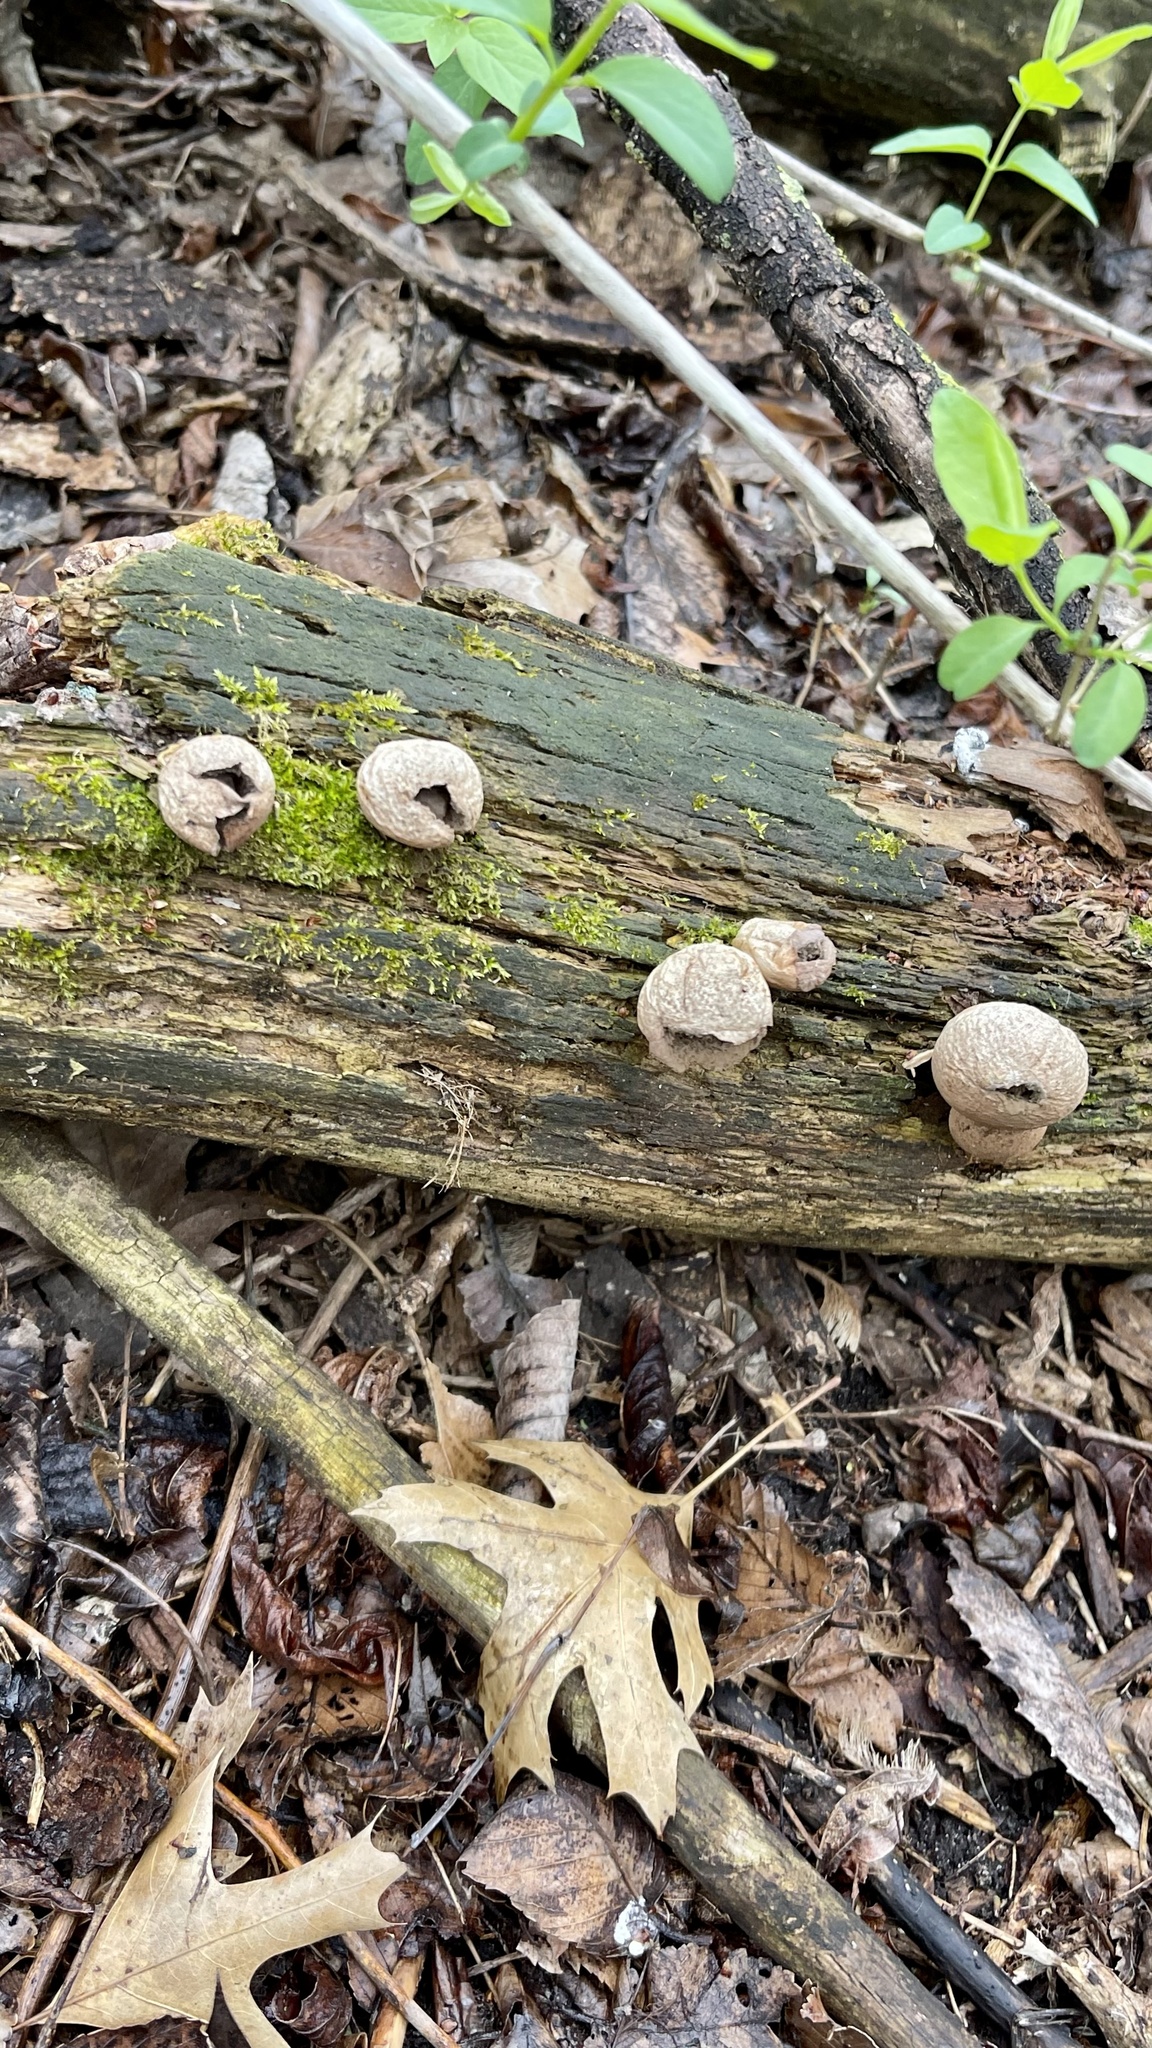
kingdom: Fungi
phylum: Basidiomycota
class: Agaricomycetes
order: Agaricales
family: Lycoperdaceae
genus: Apioperdon
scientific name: Apioperdon pyriforme
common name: Pear-shaped puffball
